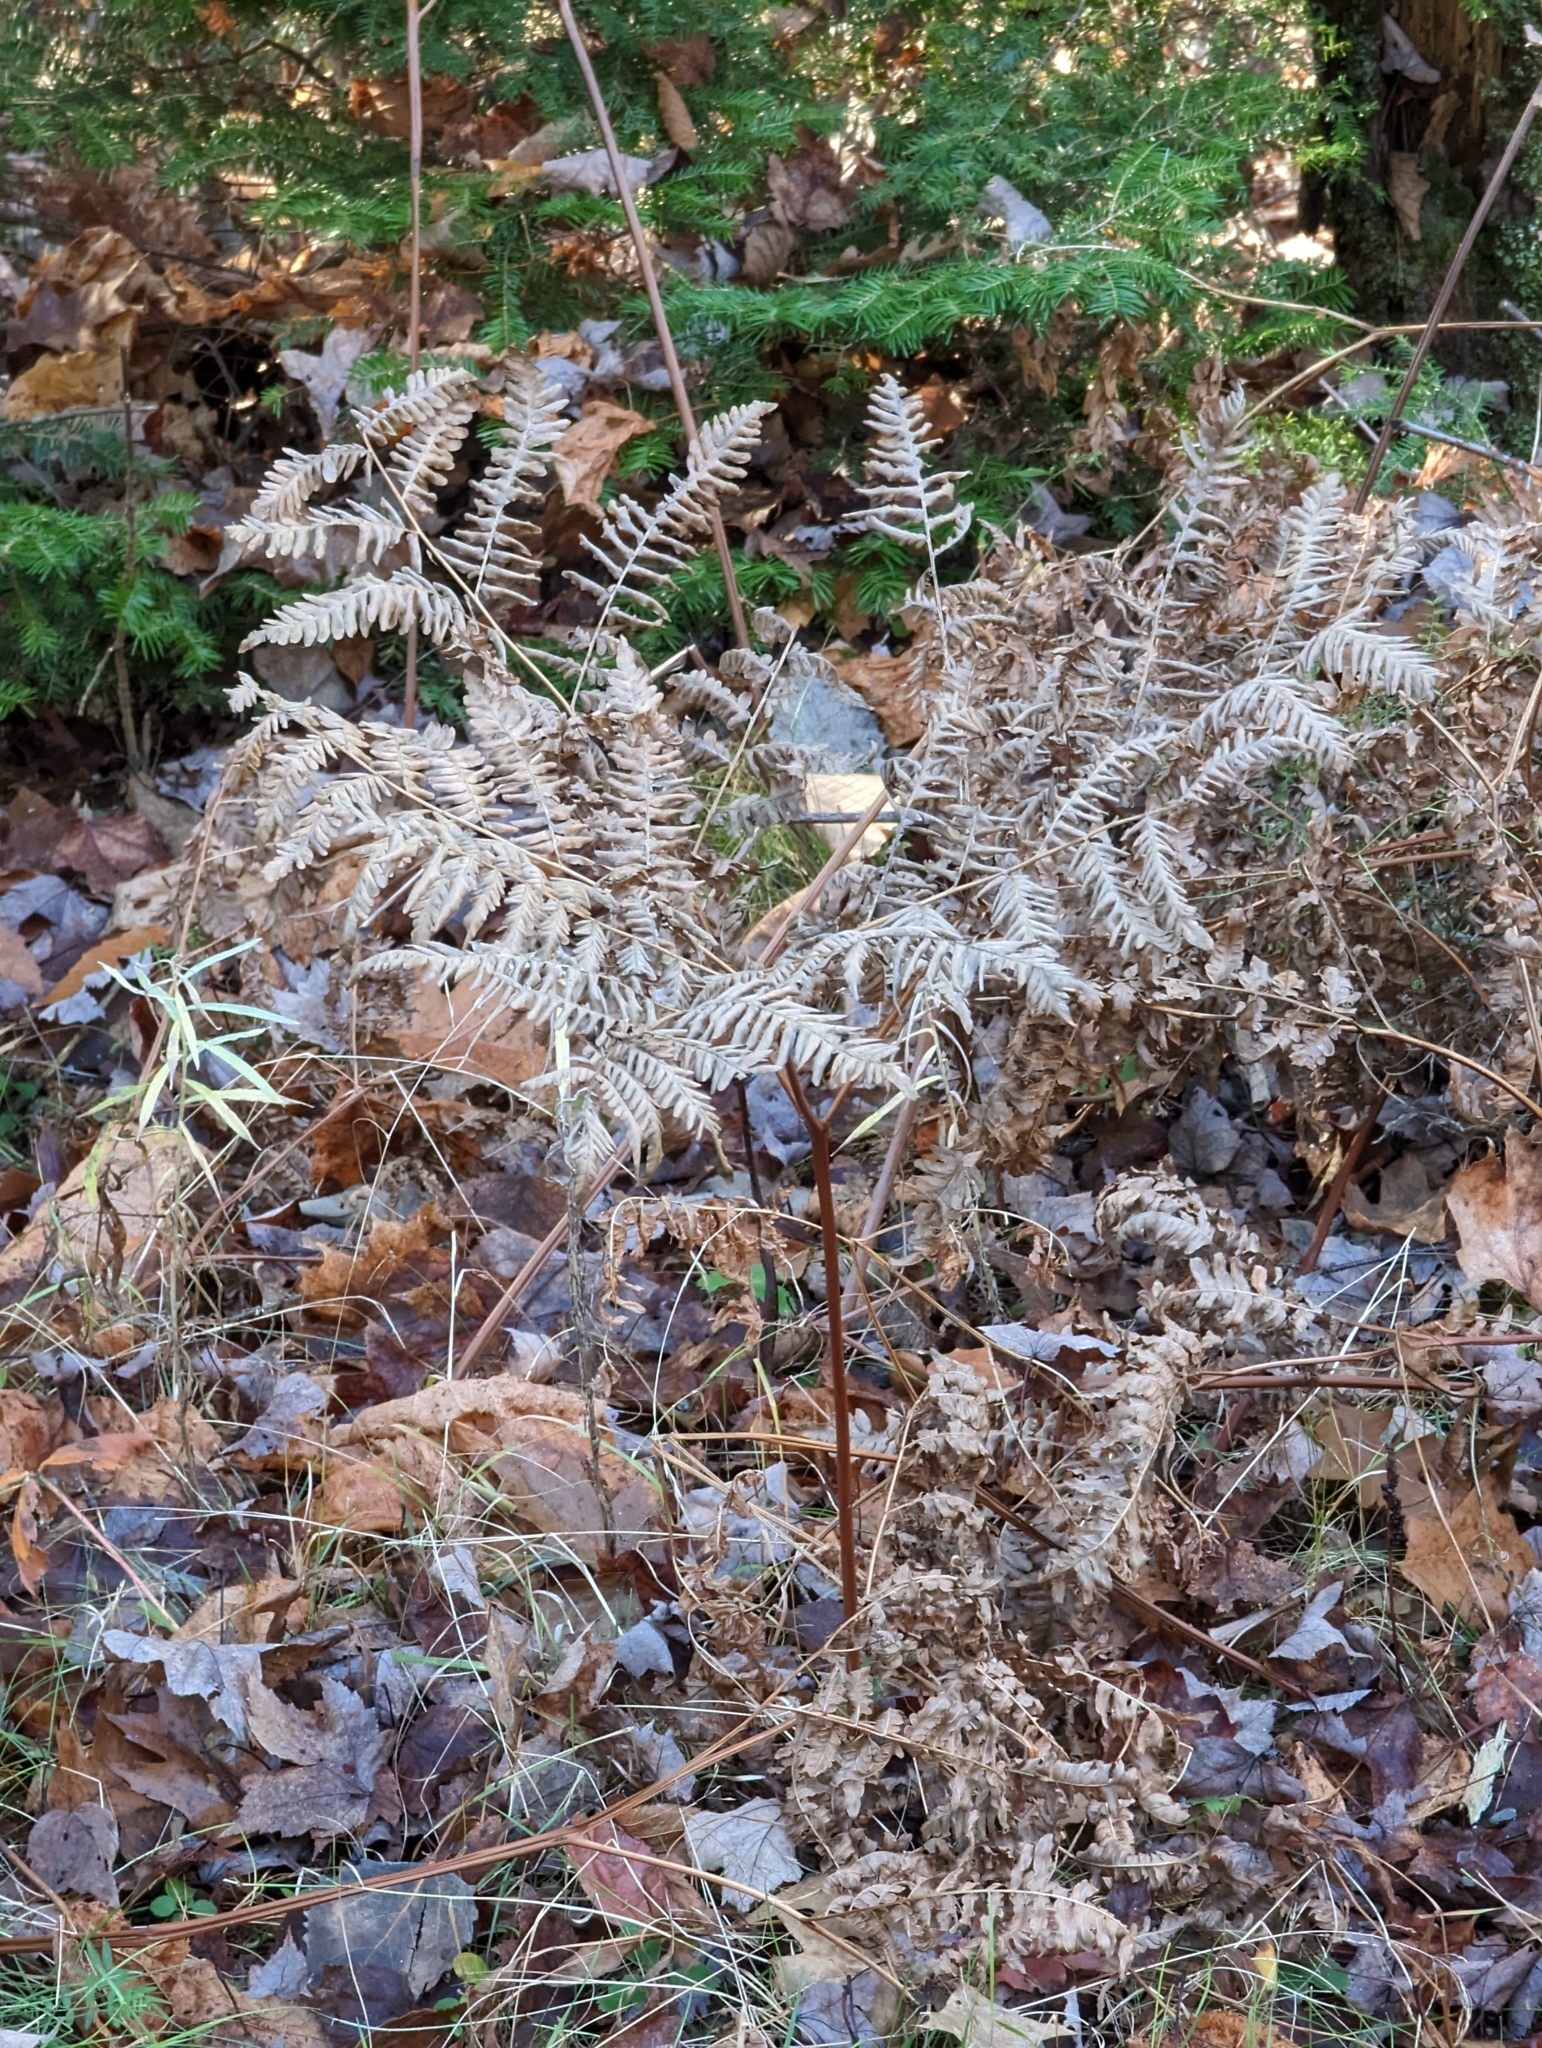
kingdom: Plantae
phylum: Tracheophyta
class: Polypodiopsida
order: Polypodiales
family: Dennstaedtiaceae
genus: Pteridium
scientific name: Pteridium aquilinum
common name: Bracken
